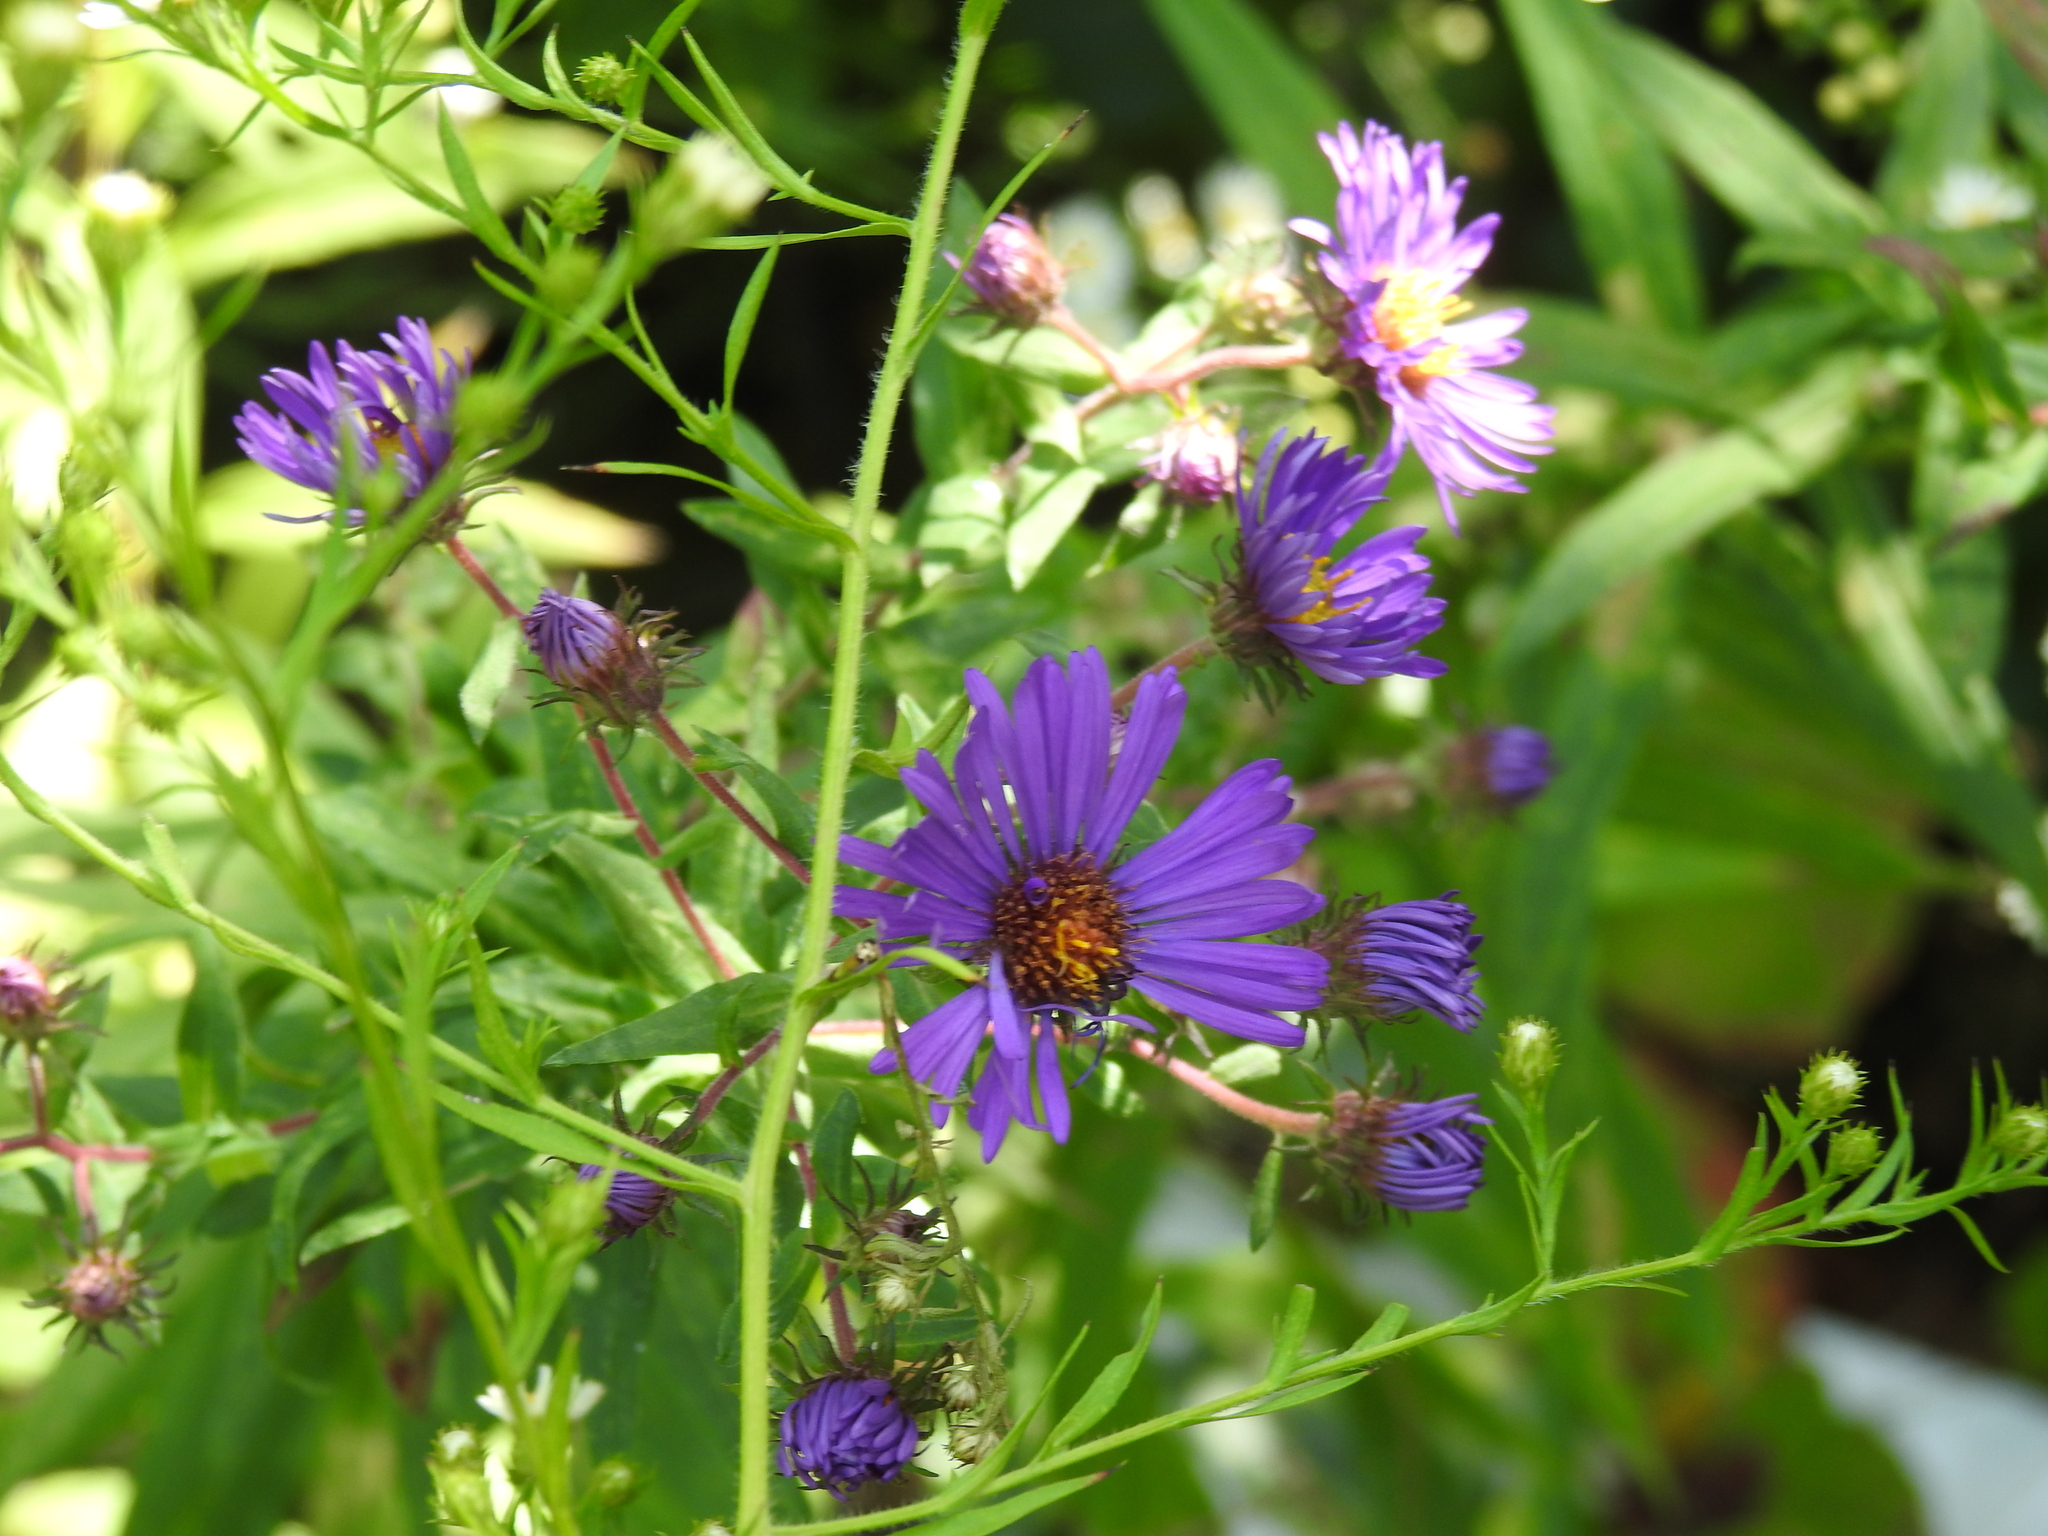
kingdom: Plantae
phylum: Tracheophyta
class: Magnoliopsida
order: Asterales
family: Asteraceae
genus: Symphyotrichum
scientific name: Symphyotrichum novae-angliae
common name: Michaelmas daisy
